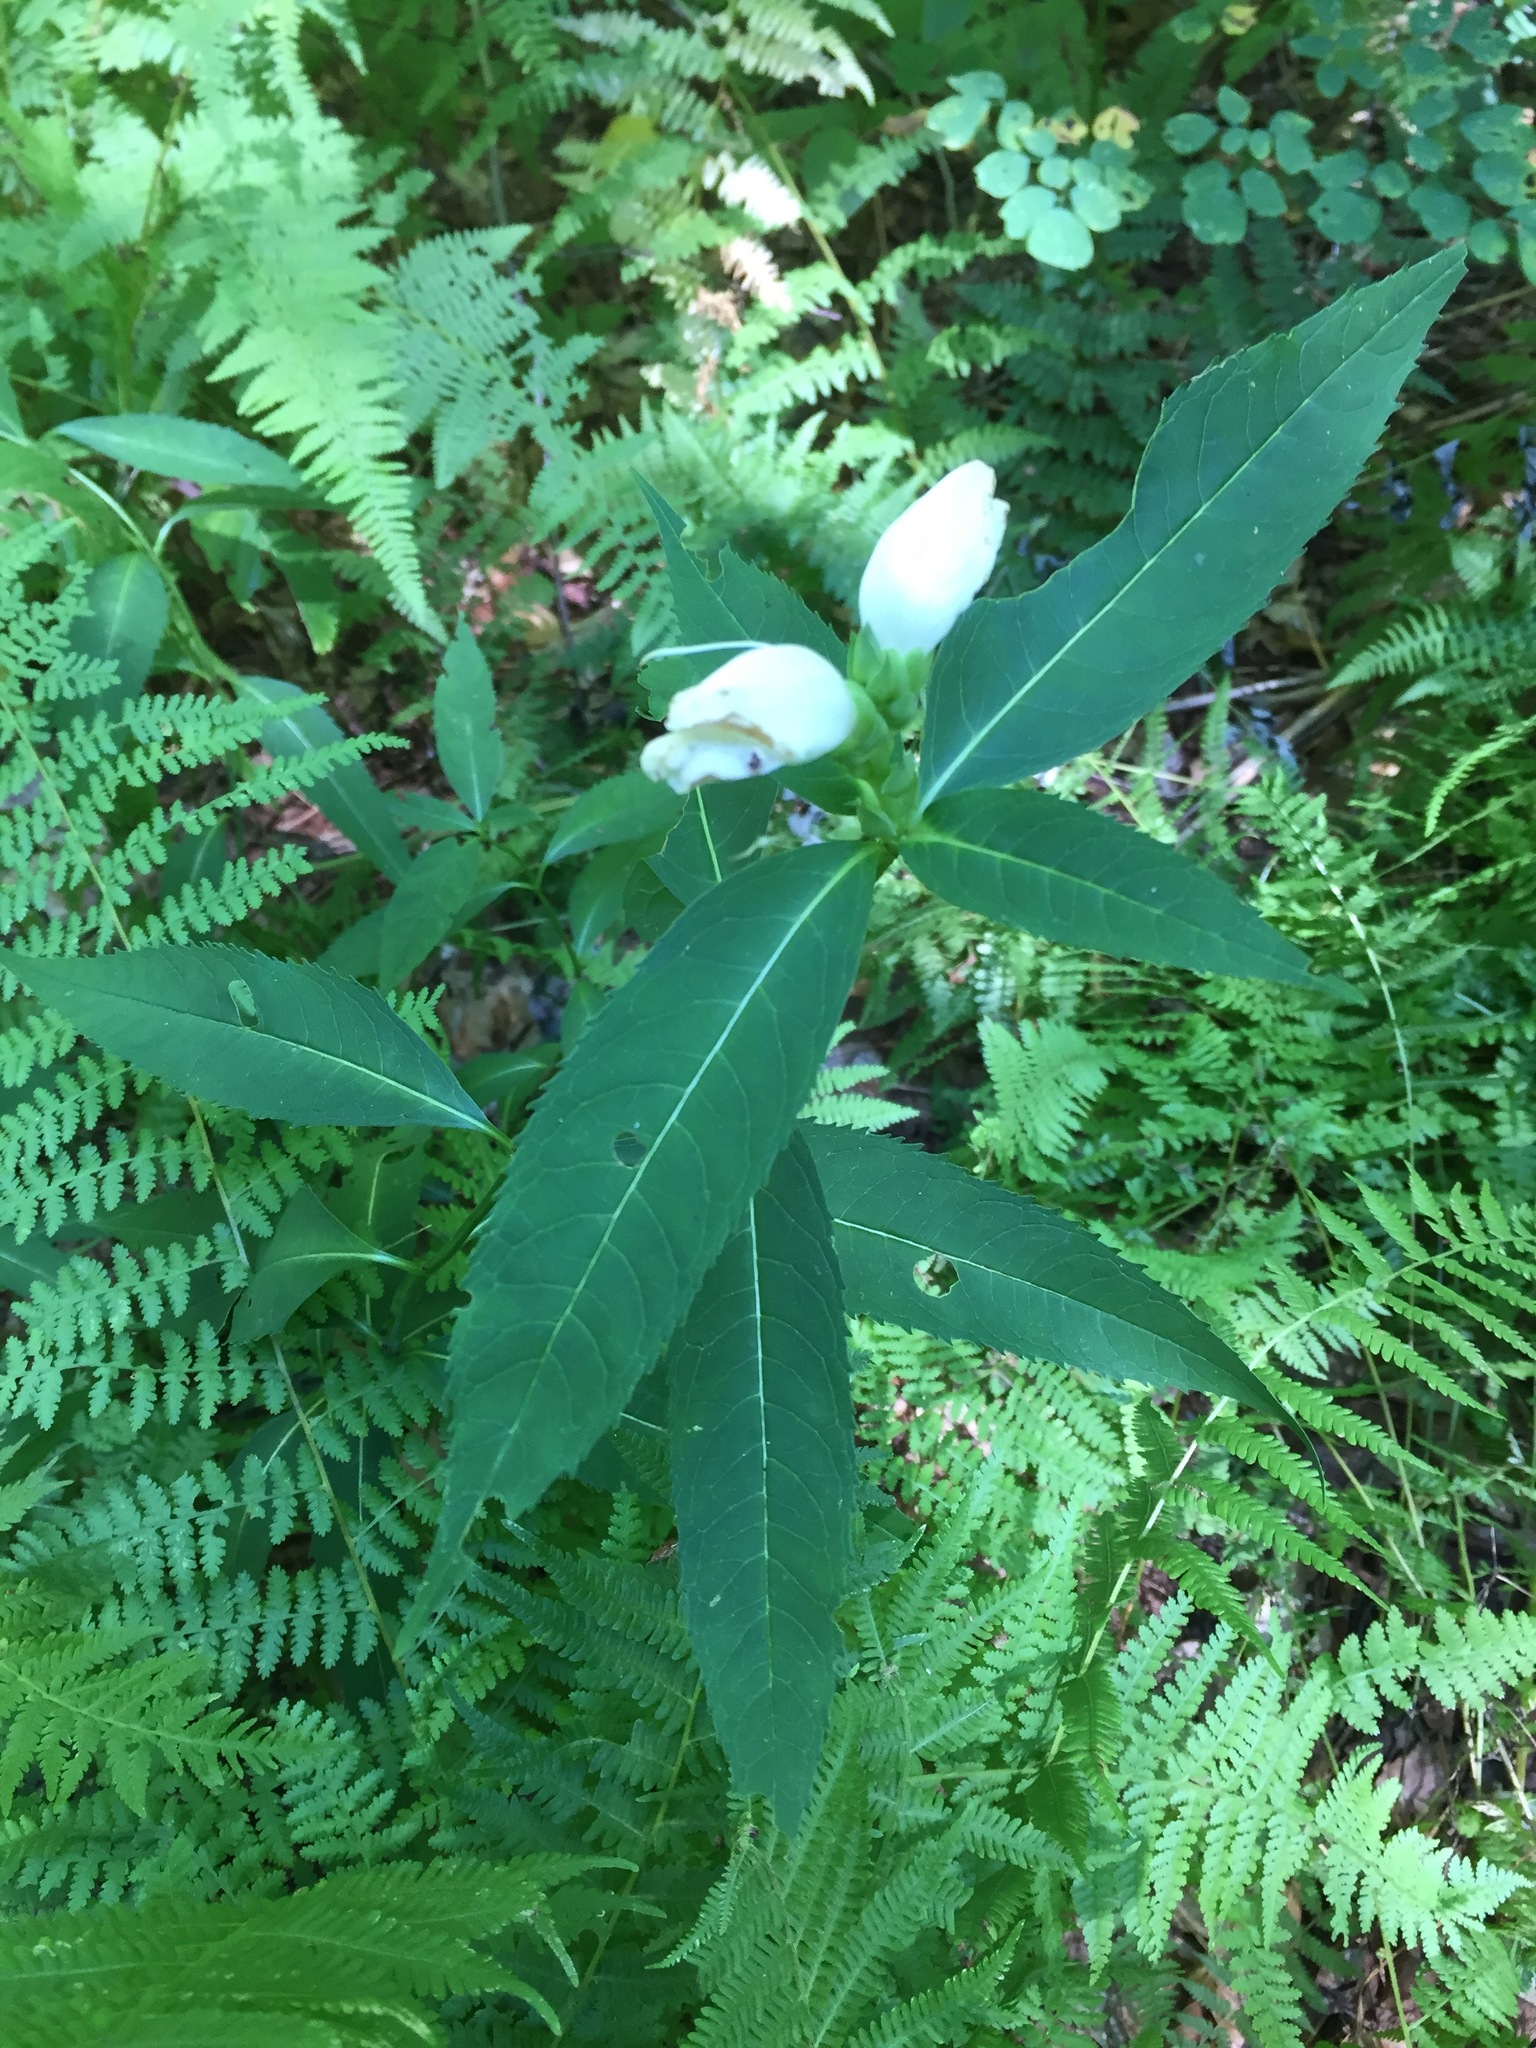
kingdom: Plantae
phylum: Tracheophyta
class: Magnoliopsida
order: Lamiales
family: Plantaginaceae
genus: Chelone
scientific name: Chelone glabra
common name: Snakehead
